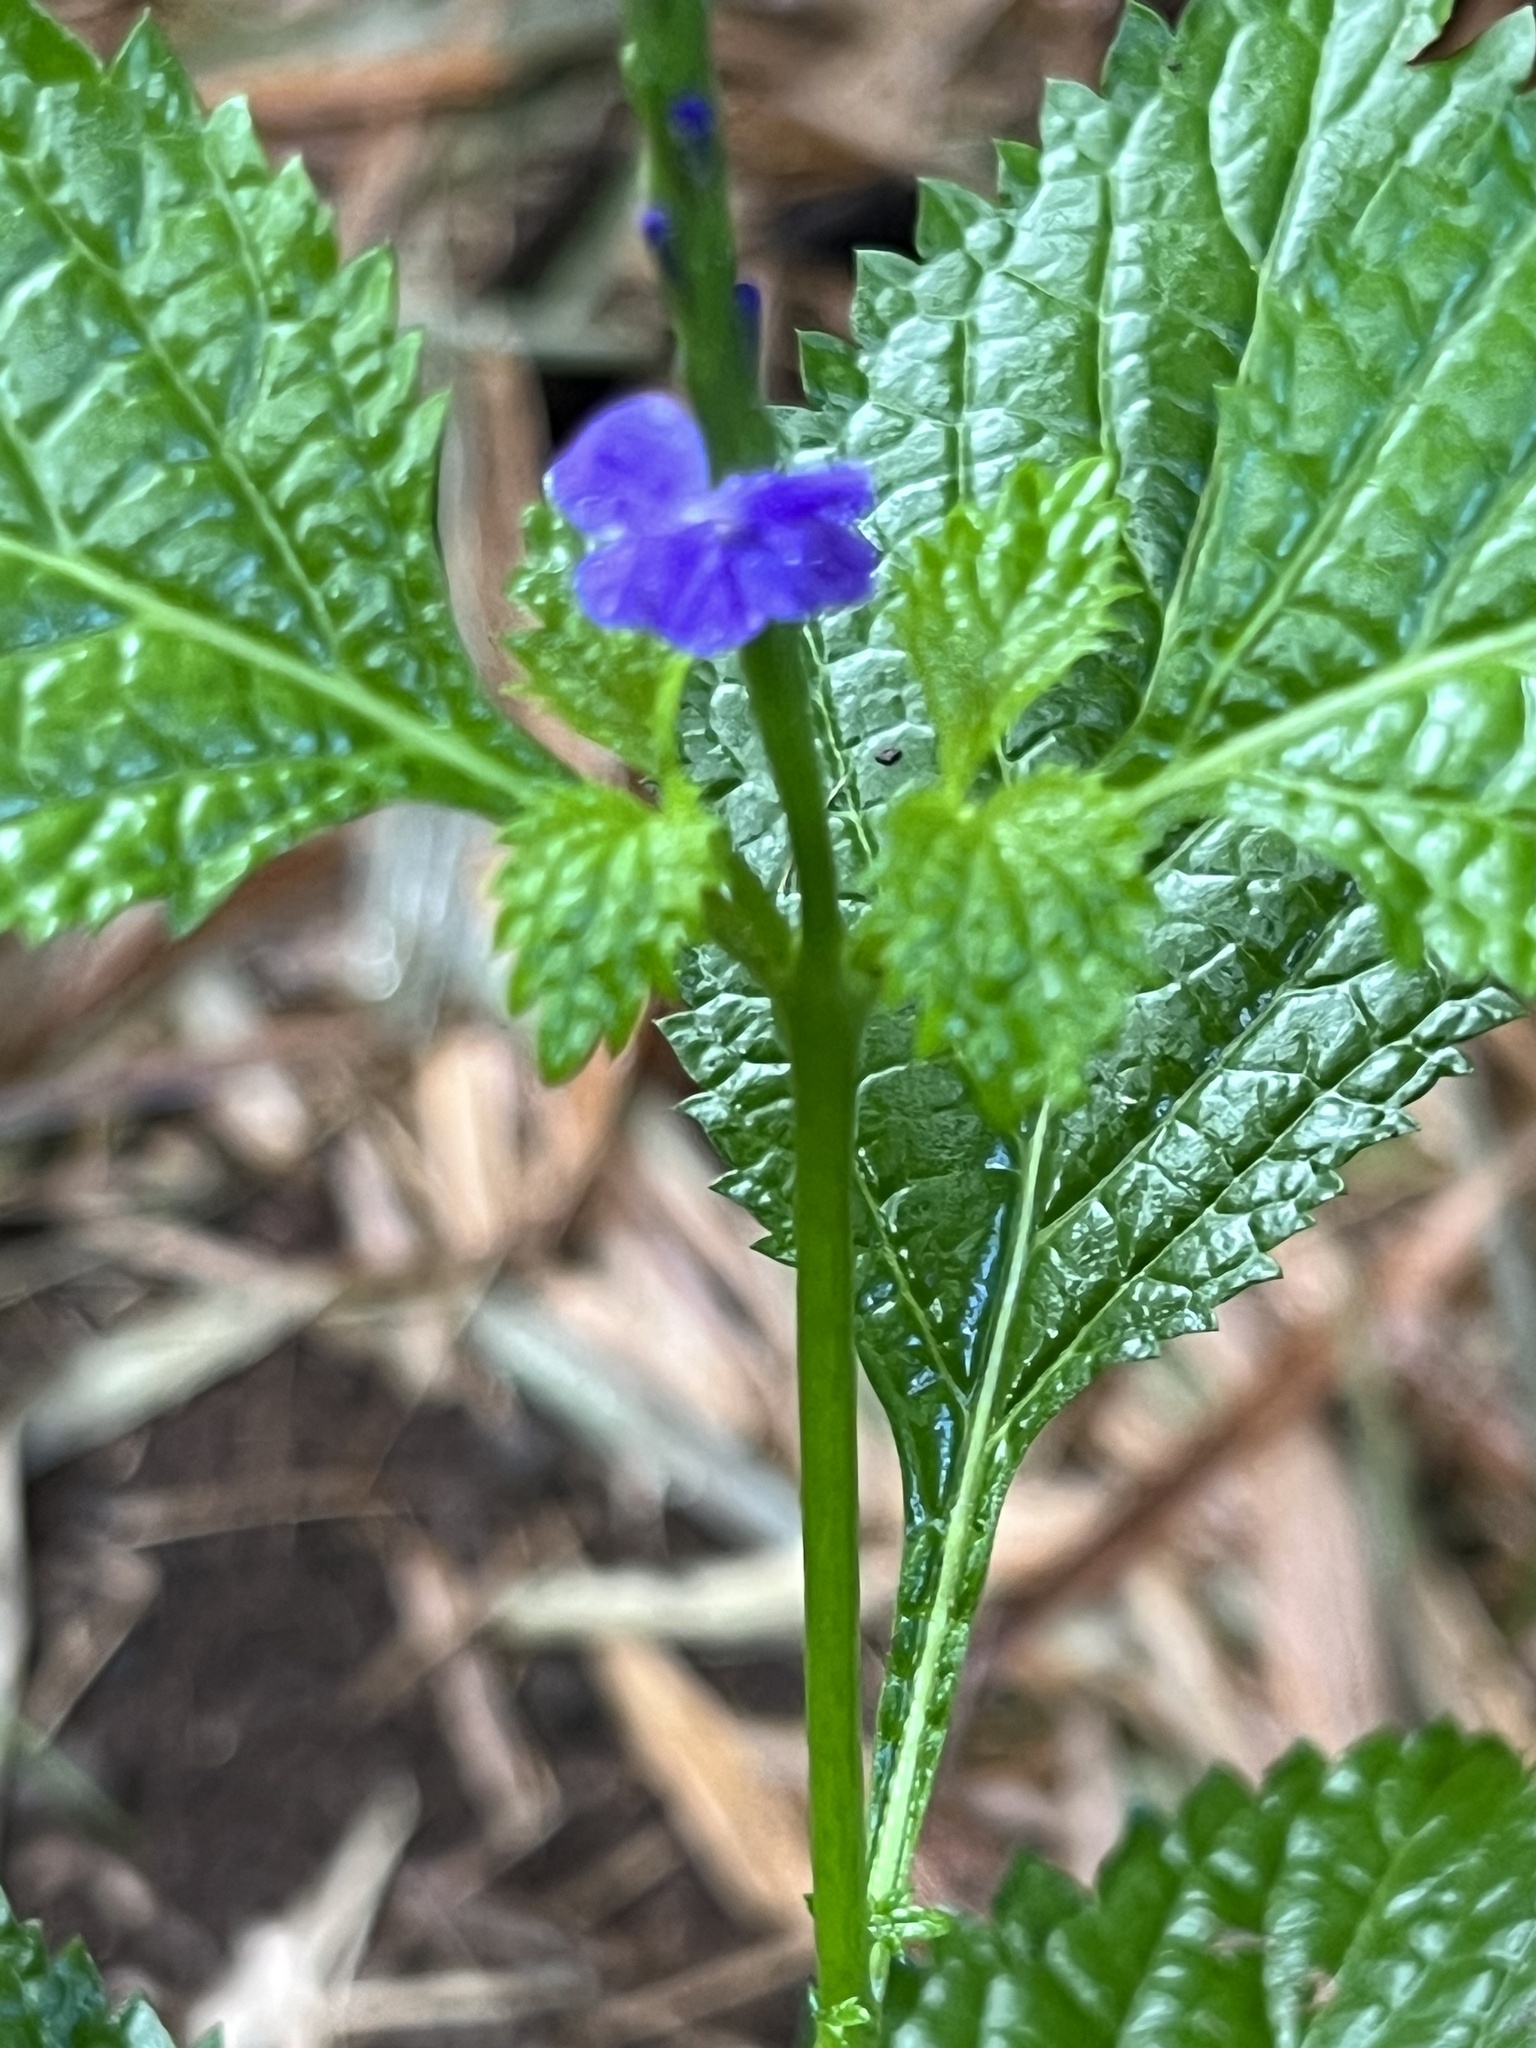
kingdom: Plantae
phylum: Tracheophyta
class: Magnoliopsida
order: Lamiales
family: Verbenaceae
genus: Stachytarpheta
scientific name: Stachytarpheta cayennensis
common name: Cayenne porterweed
